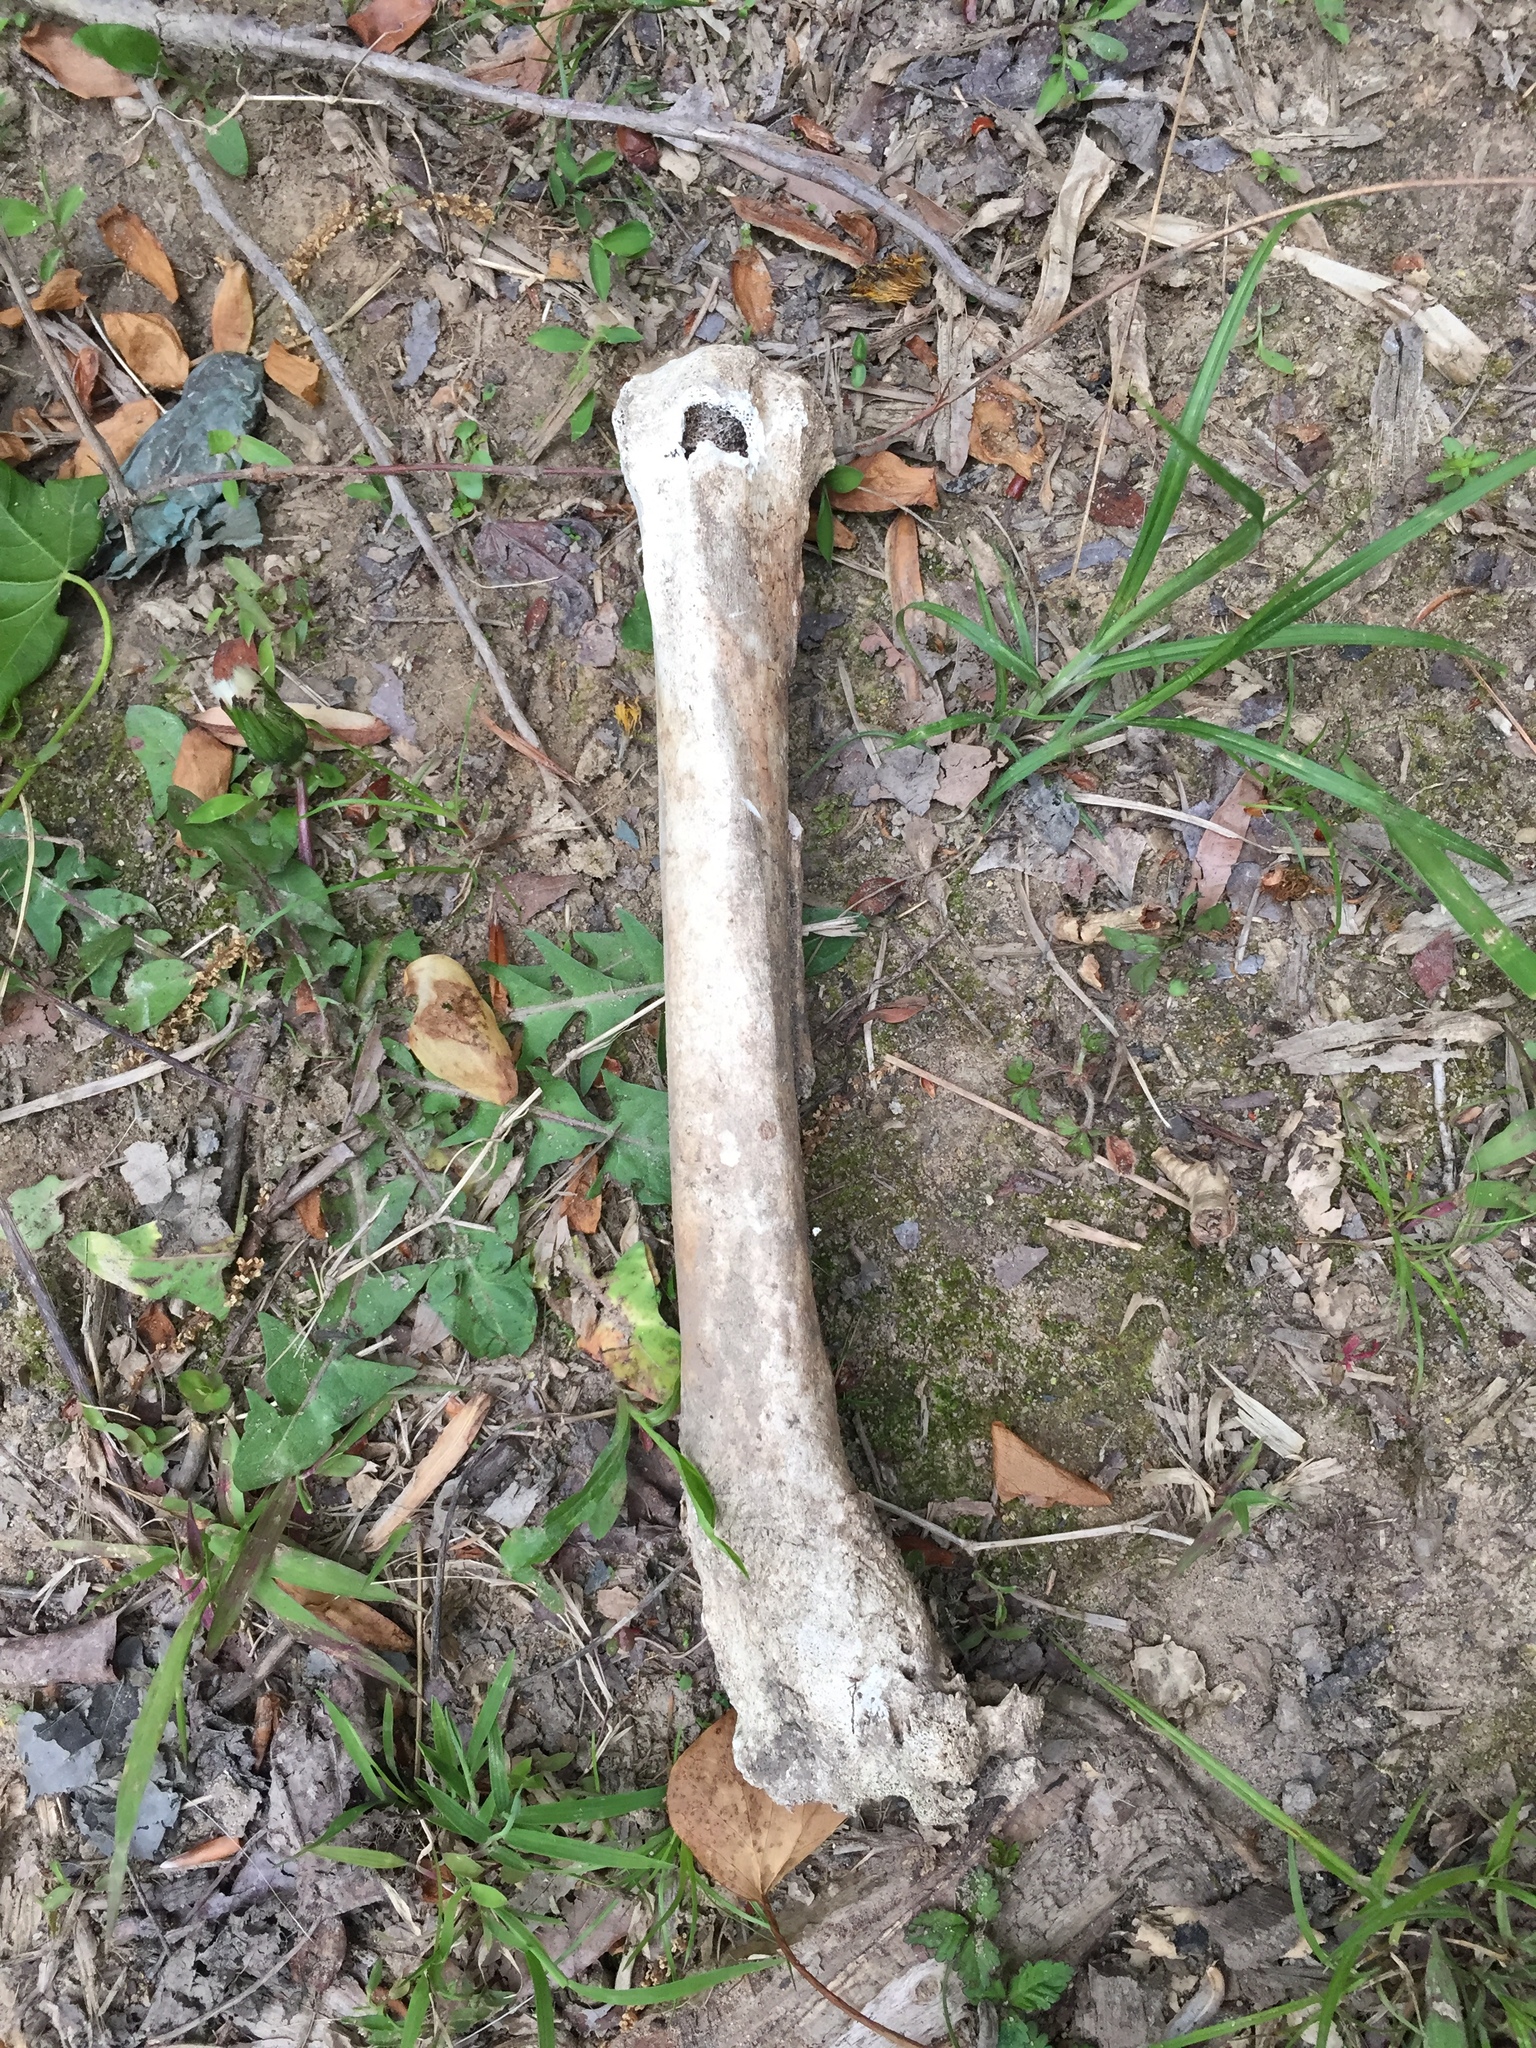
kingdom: Animalia
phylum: Chordata
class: Mammalia
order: Artiodactyla
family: Cervidae
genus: Odocoileus
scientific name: Odocoileus virginianus
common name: White-tailed deer
